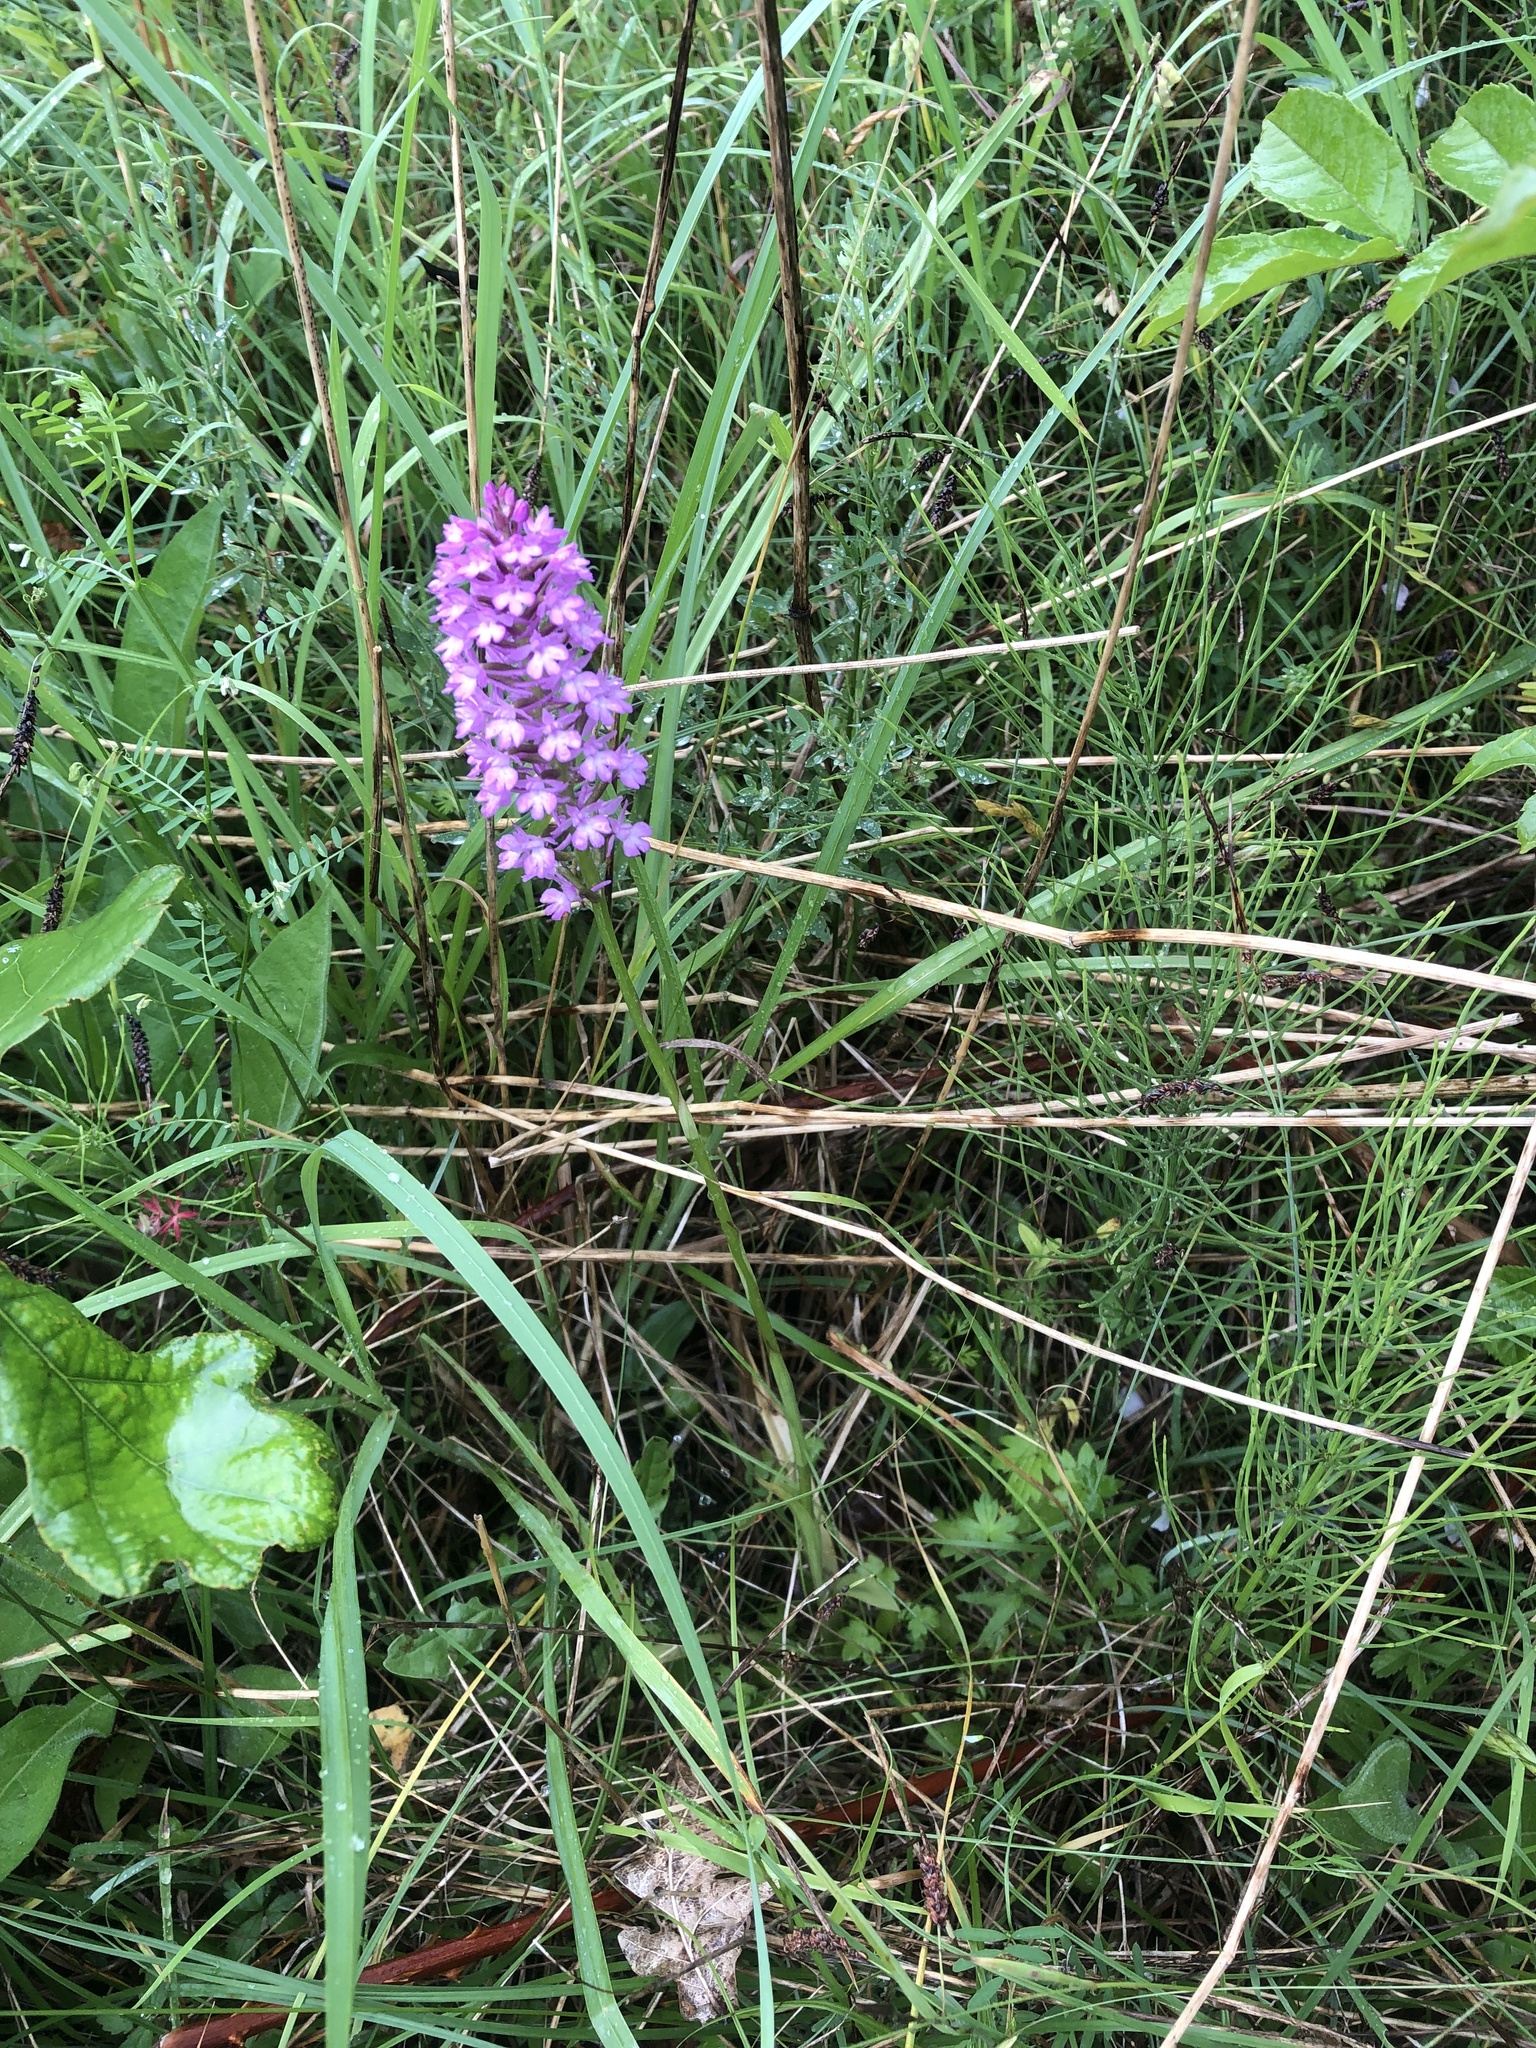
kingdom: Plantae
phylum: Tracheophyta
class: Liliopsida
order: Asparagales
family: Orchidaceae
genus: Anacamptis
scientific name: Anacamptis pyramidalis
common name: Pyramidal orchid
